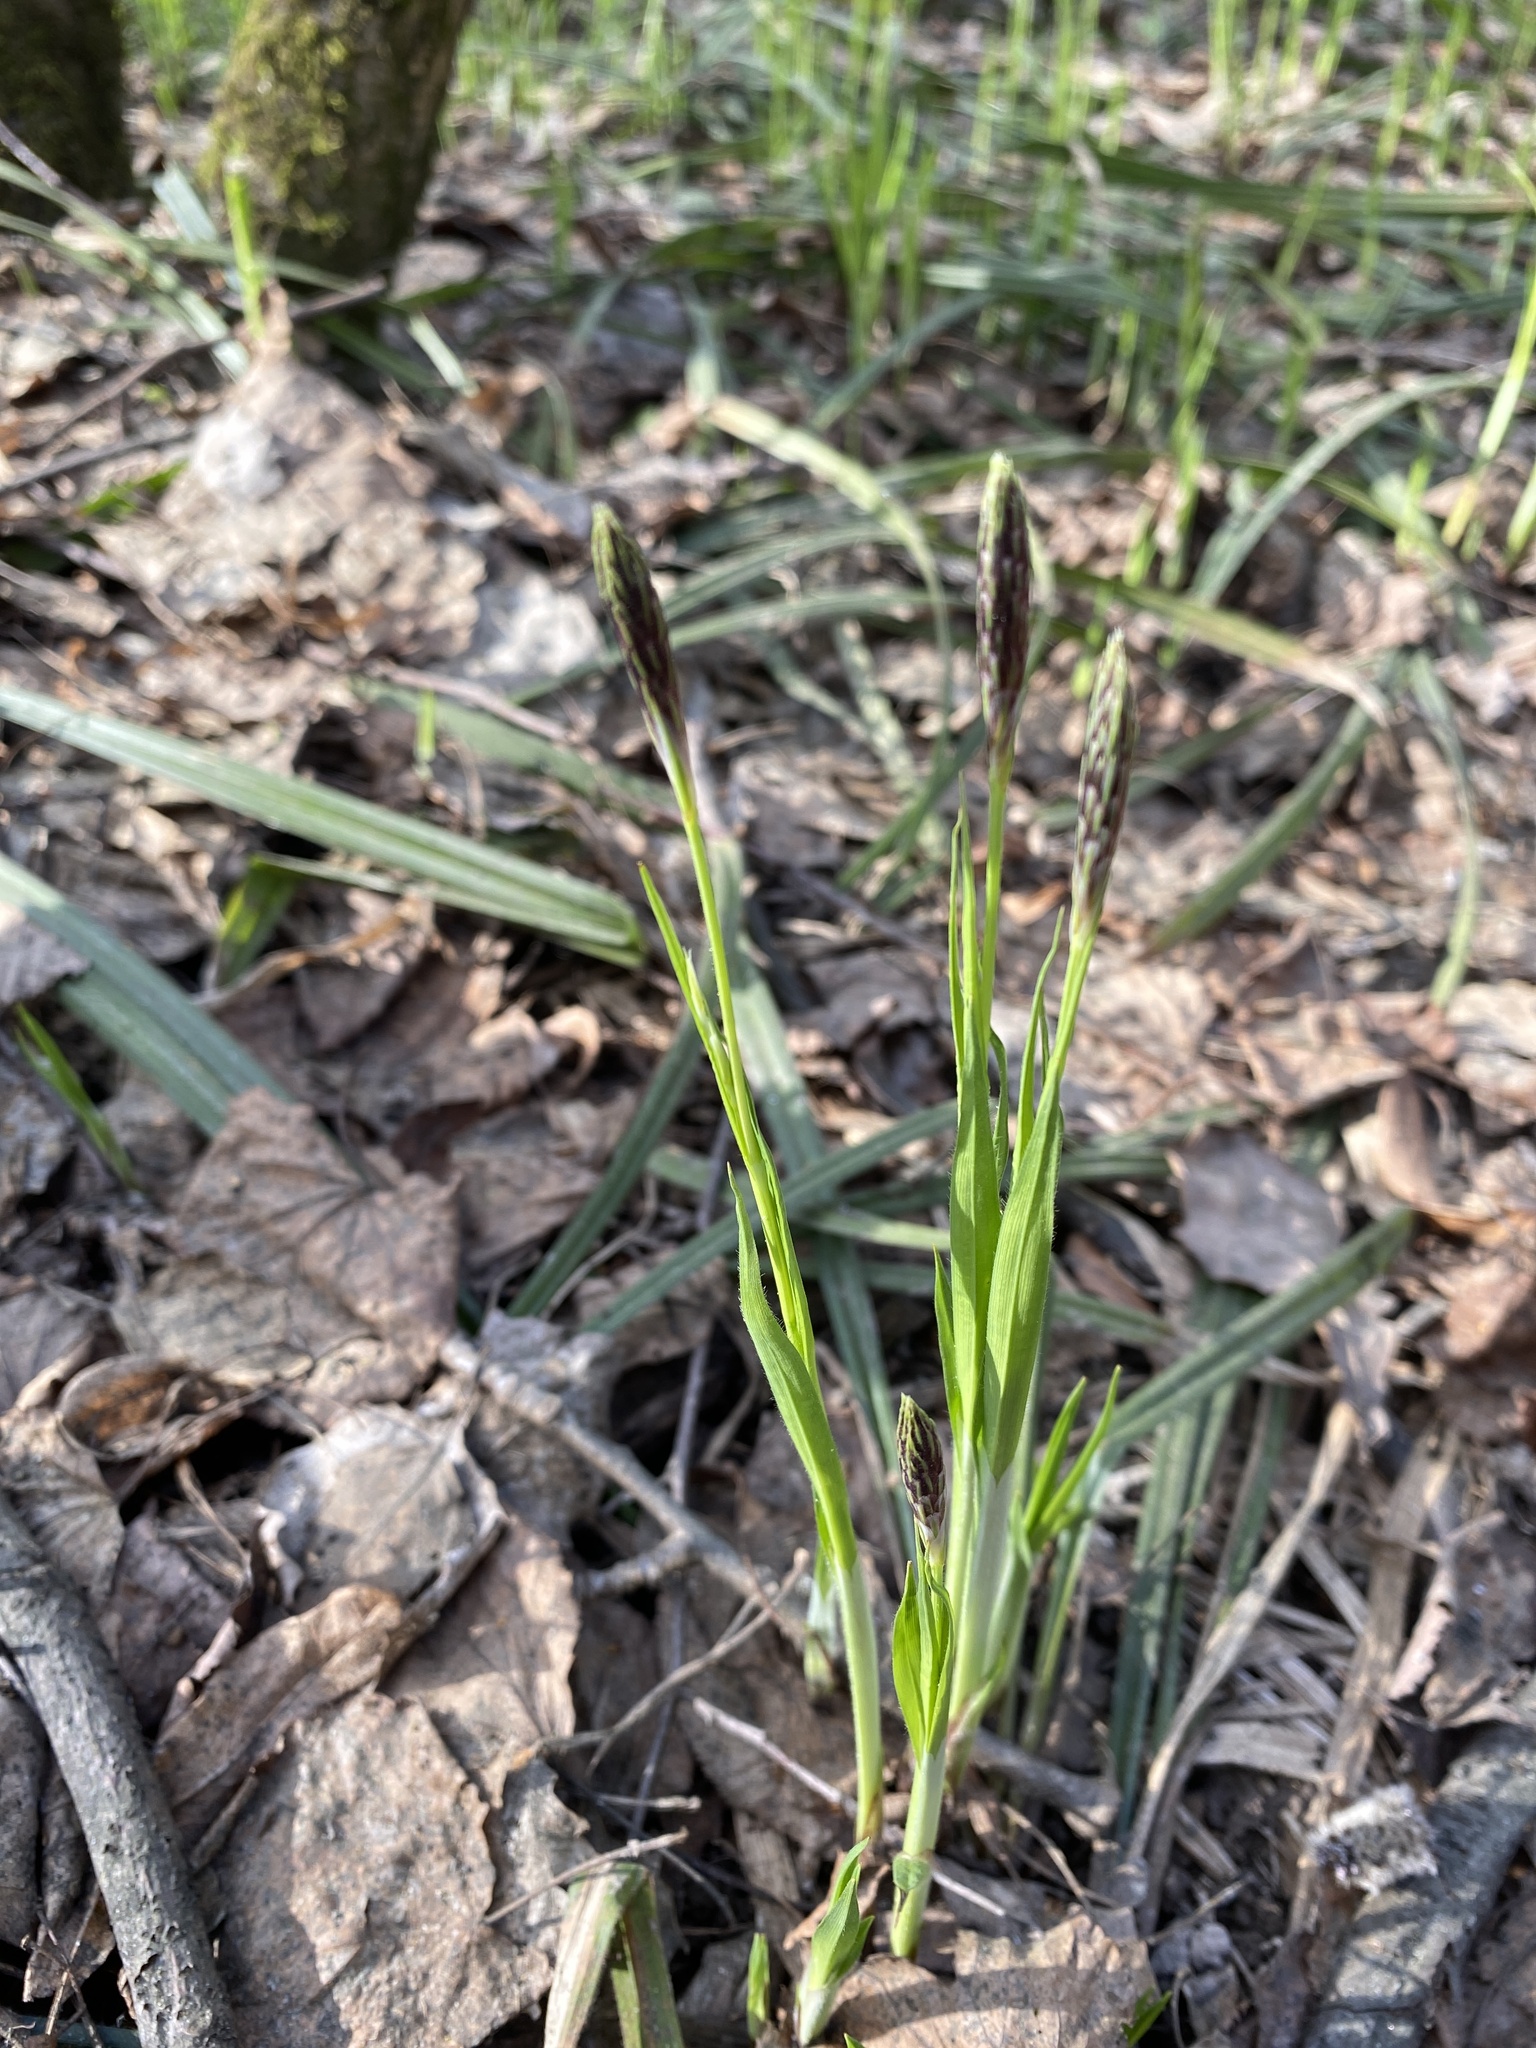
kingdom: Plantae
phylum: Tracheophyta
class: Liliopsida
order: Poales
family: Cyperaceae
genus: Carex
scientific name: Carex pilosa
